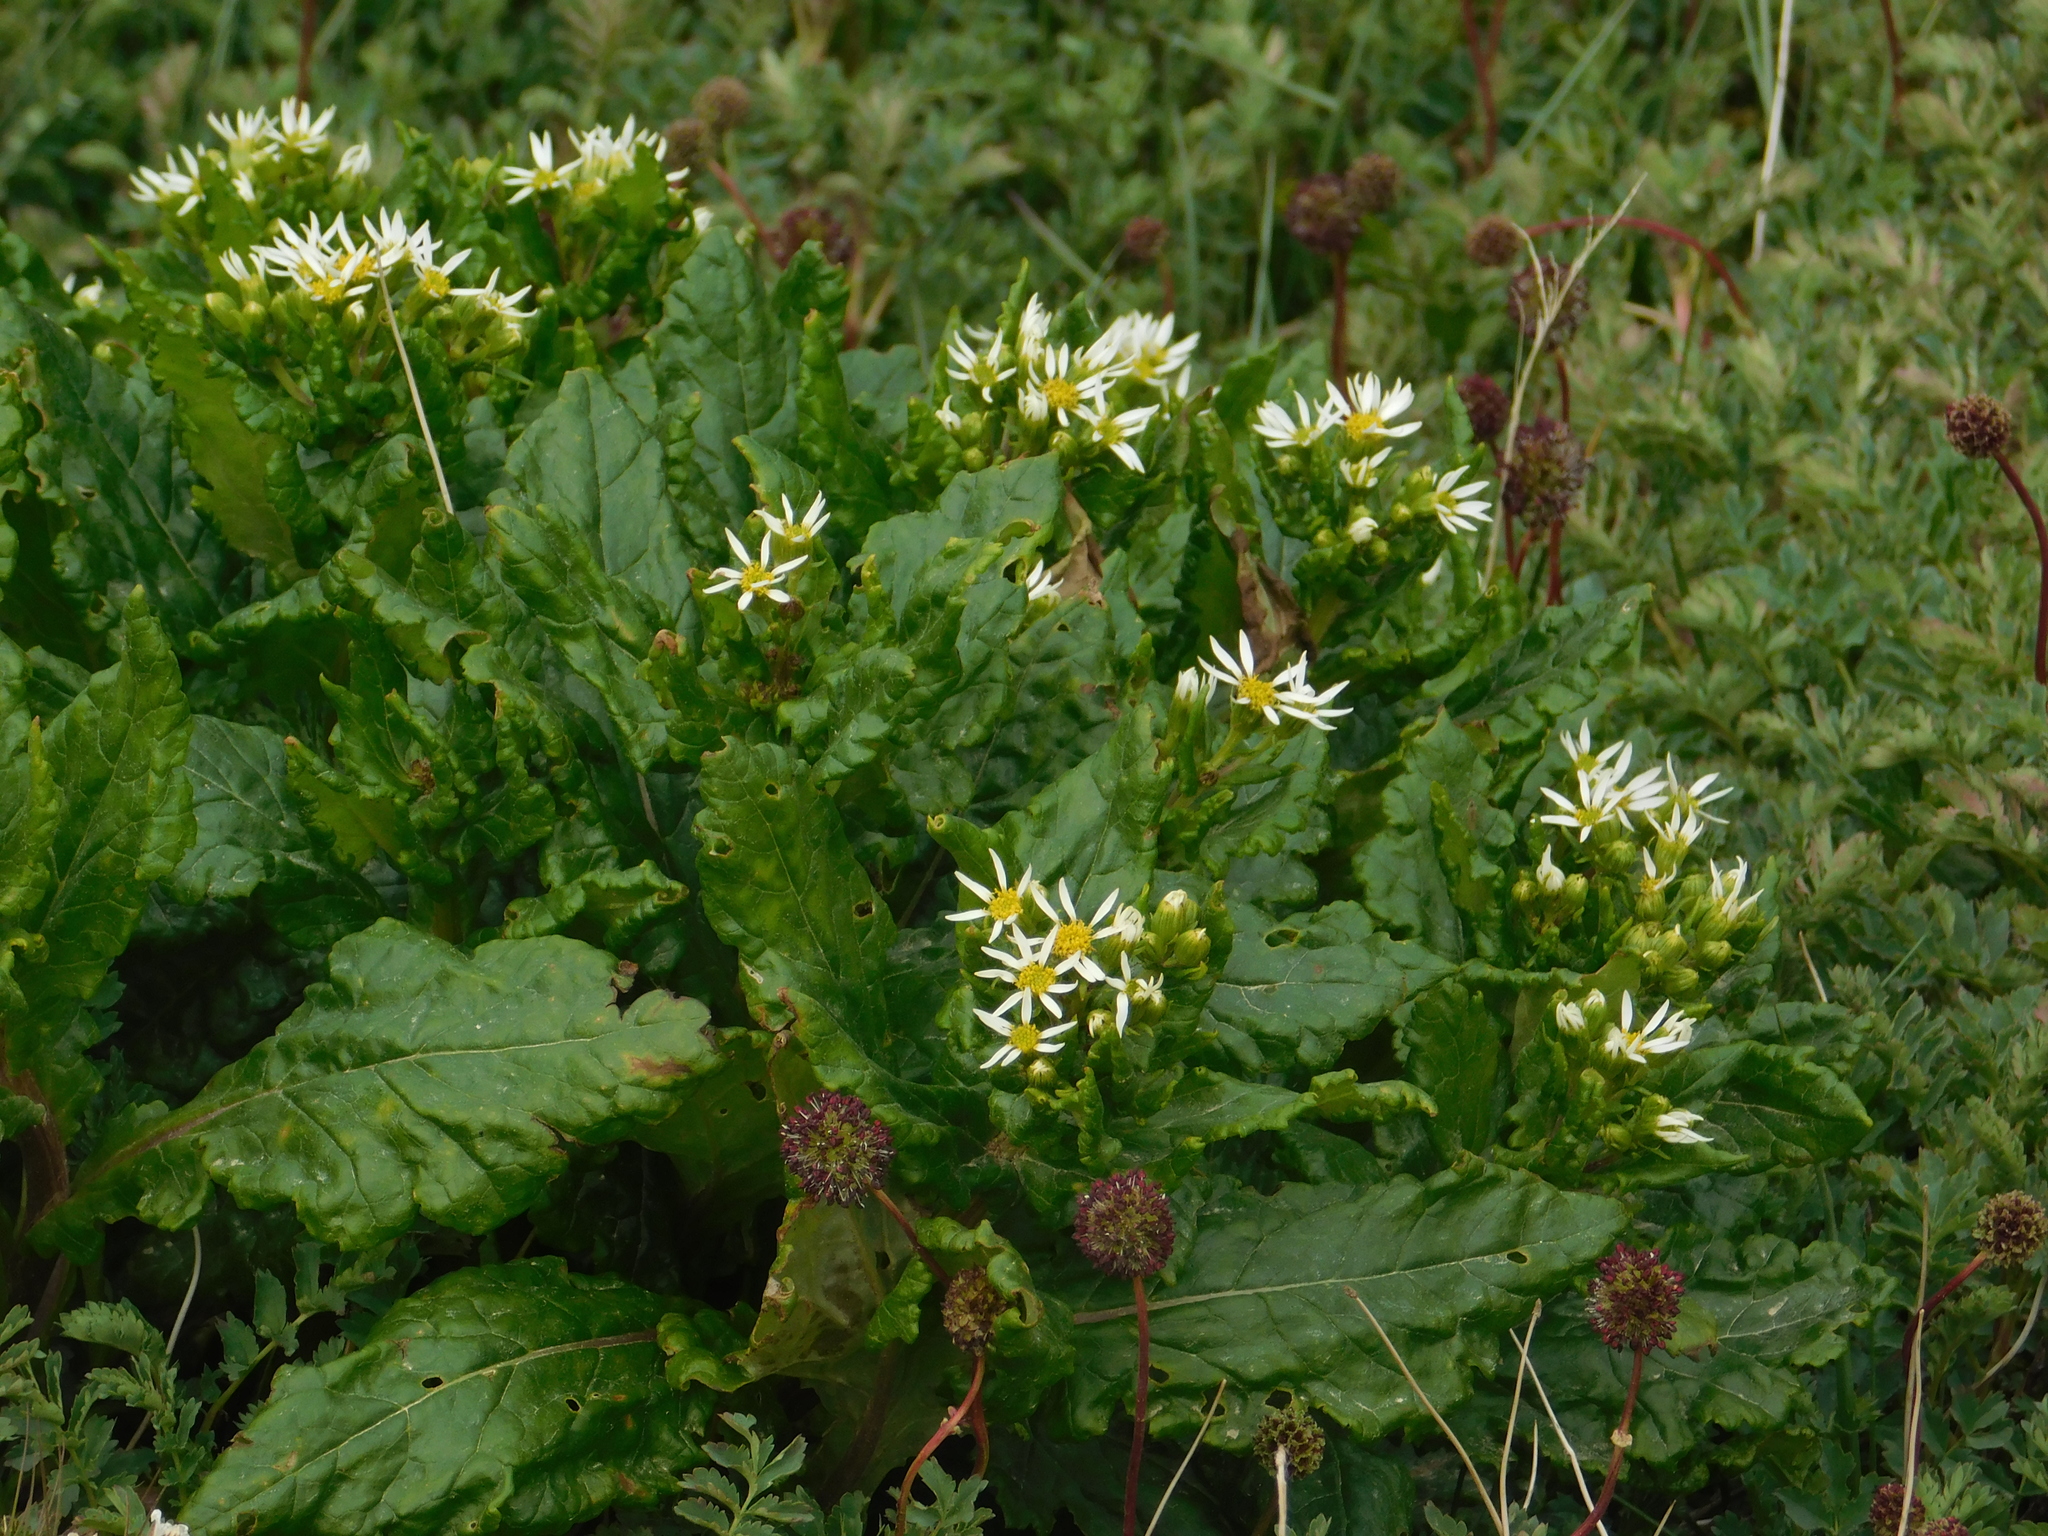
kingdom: Plantae
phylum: Tracheophyta
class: Magnoliopsida
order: Asterales
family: Asteraceae
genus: Iocenes
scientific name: Iocenes virens
